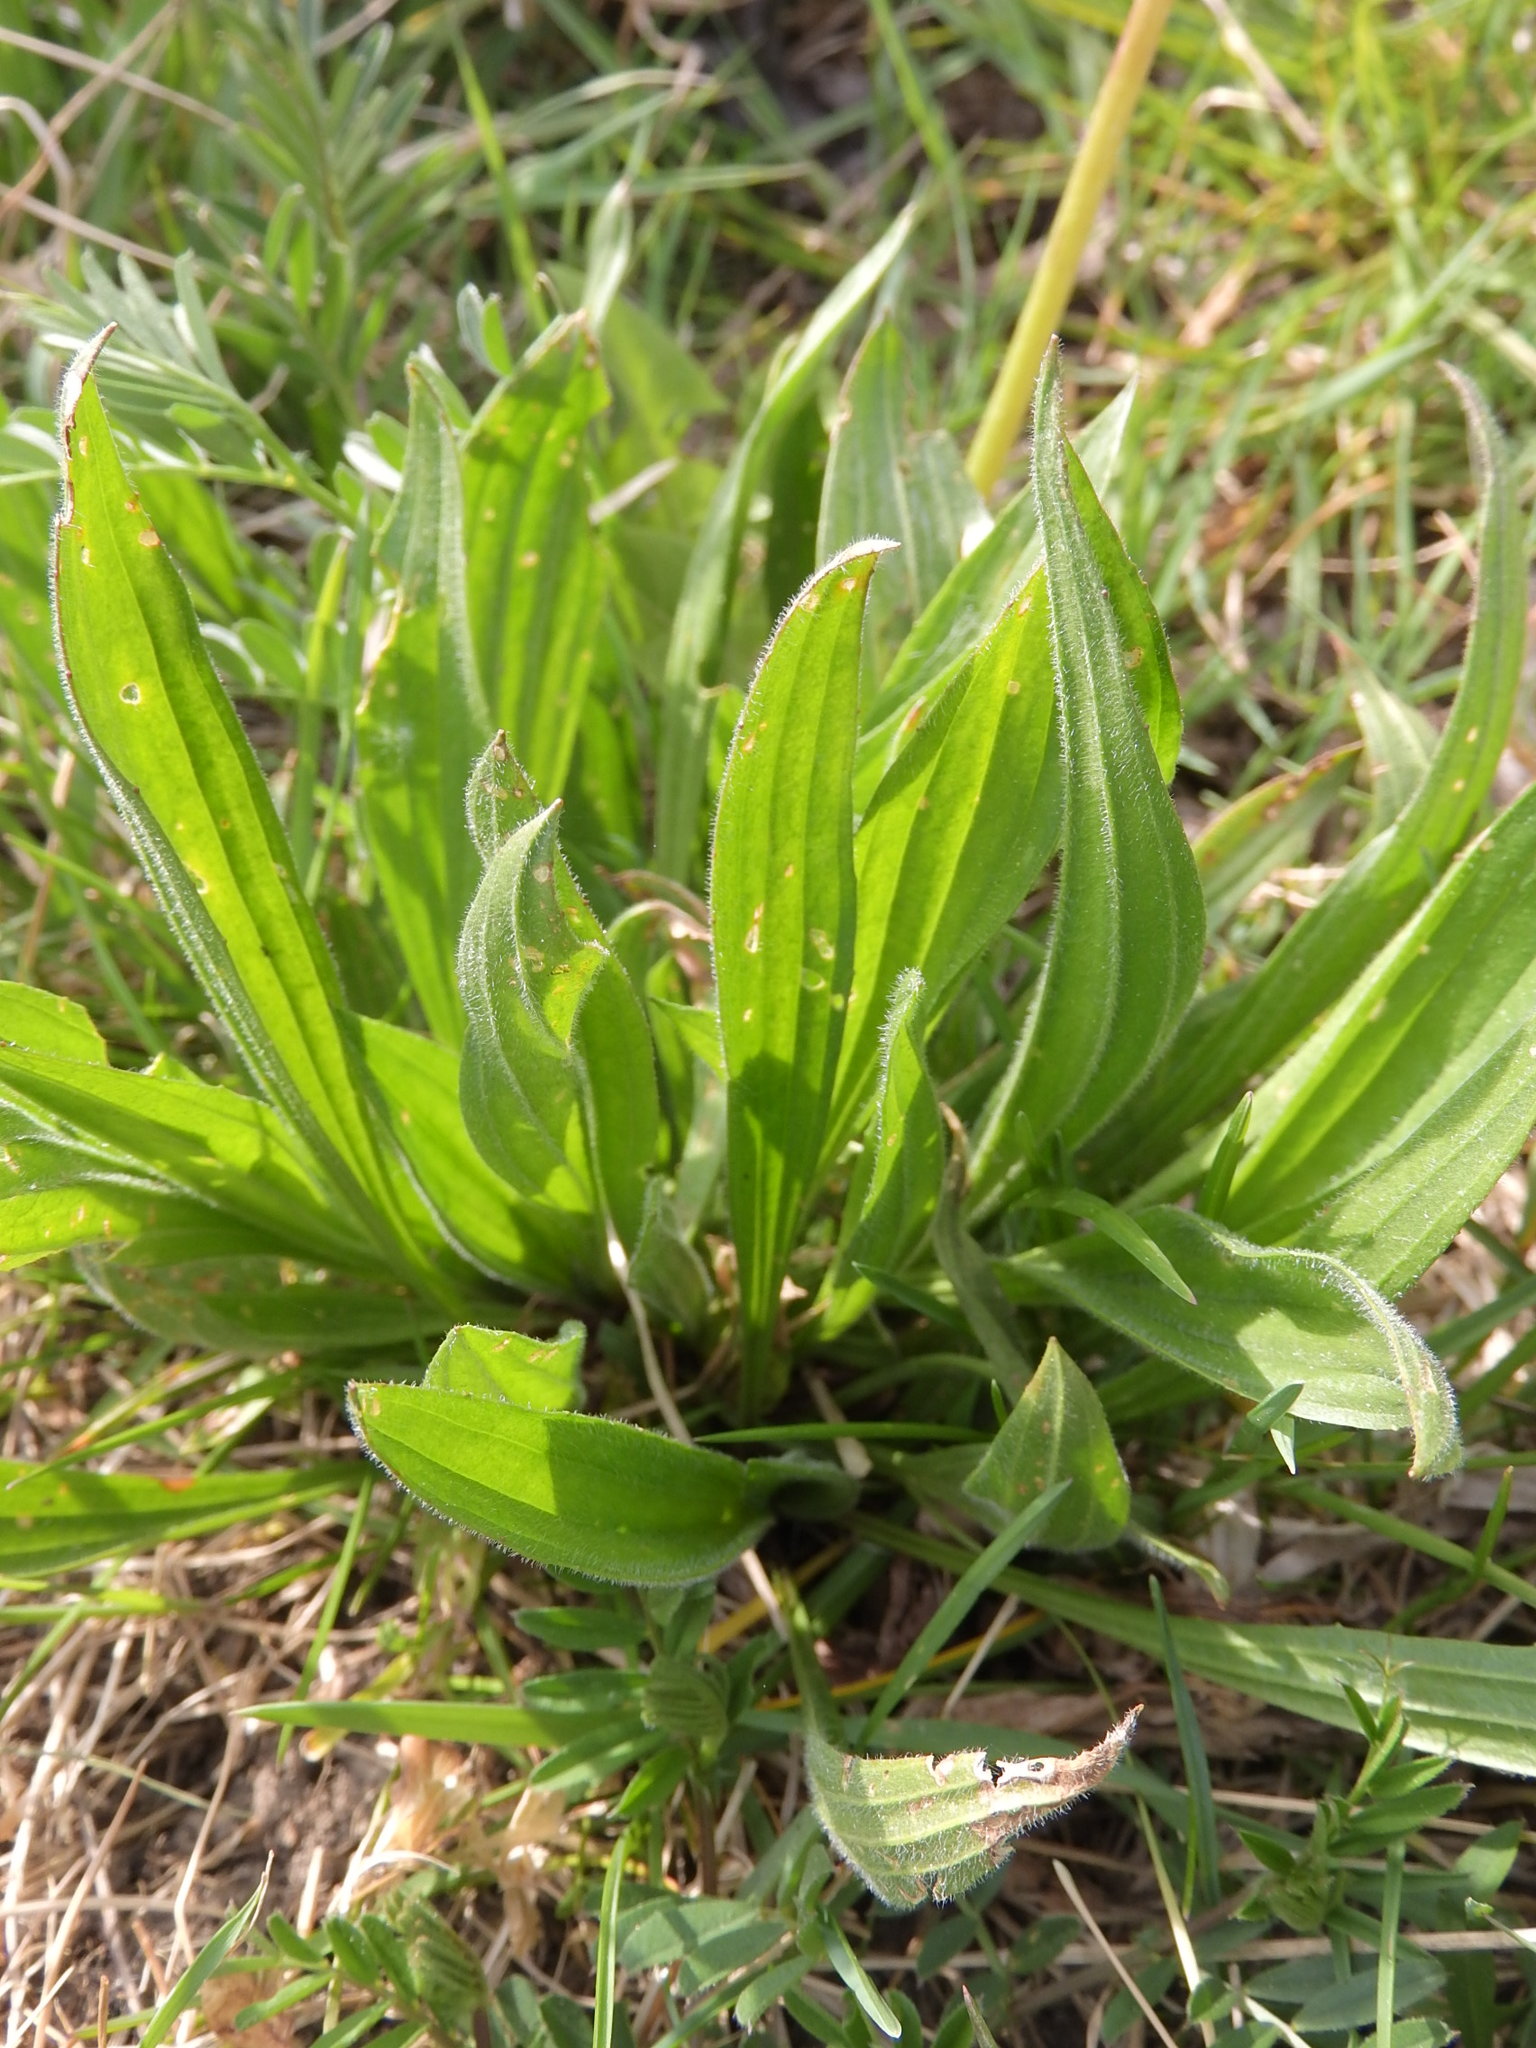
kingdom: Plantae
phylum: Tracheophyta
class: Magnoliopsida
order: Lamiales
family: Plantaginaceae
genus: Plantago
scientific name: Plantago lanceolata
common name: Ribwort plantain
